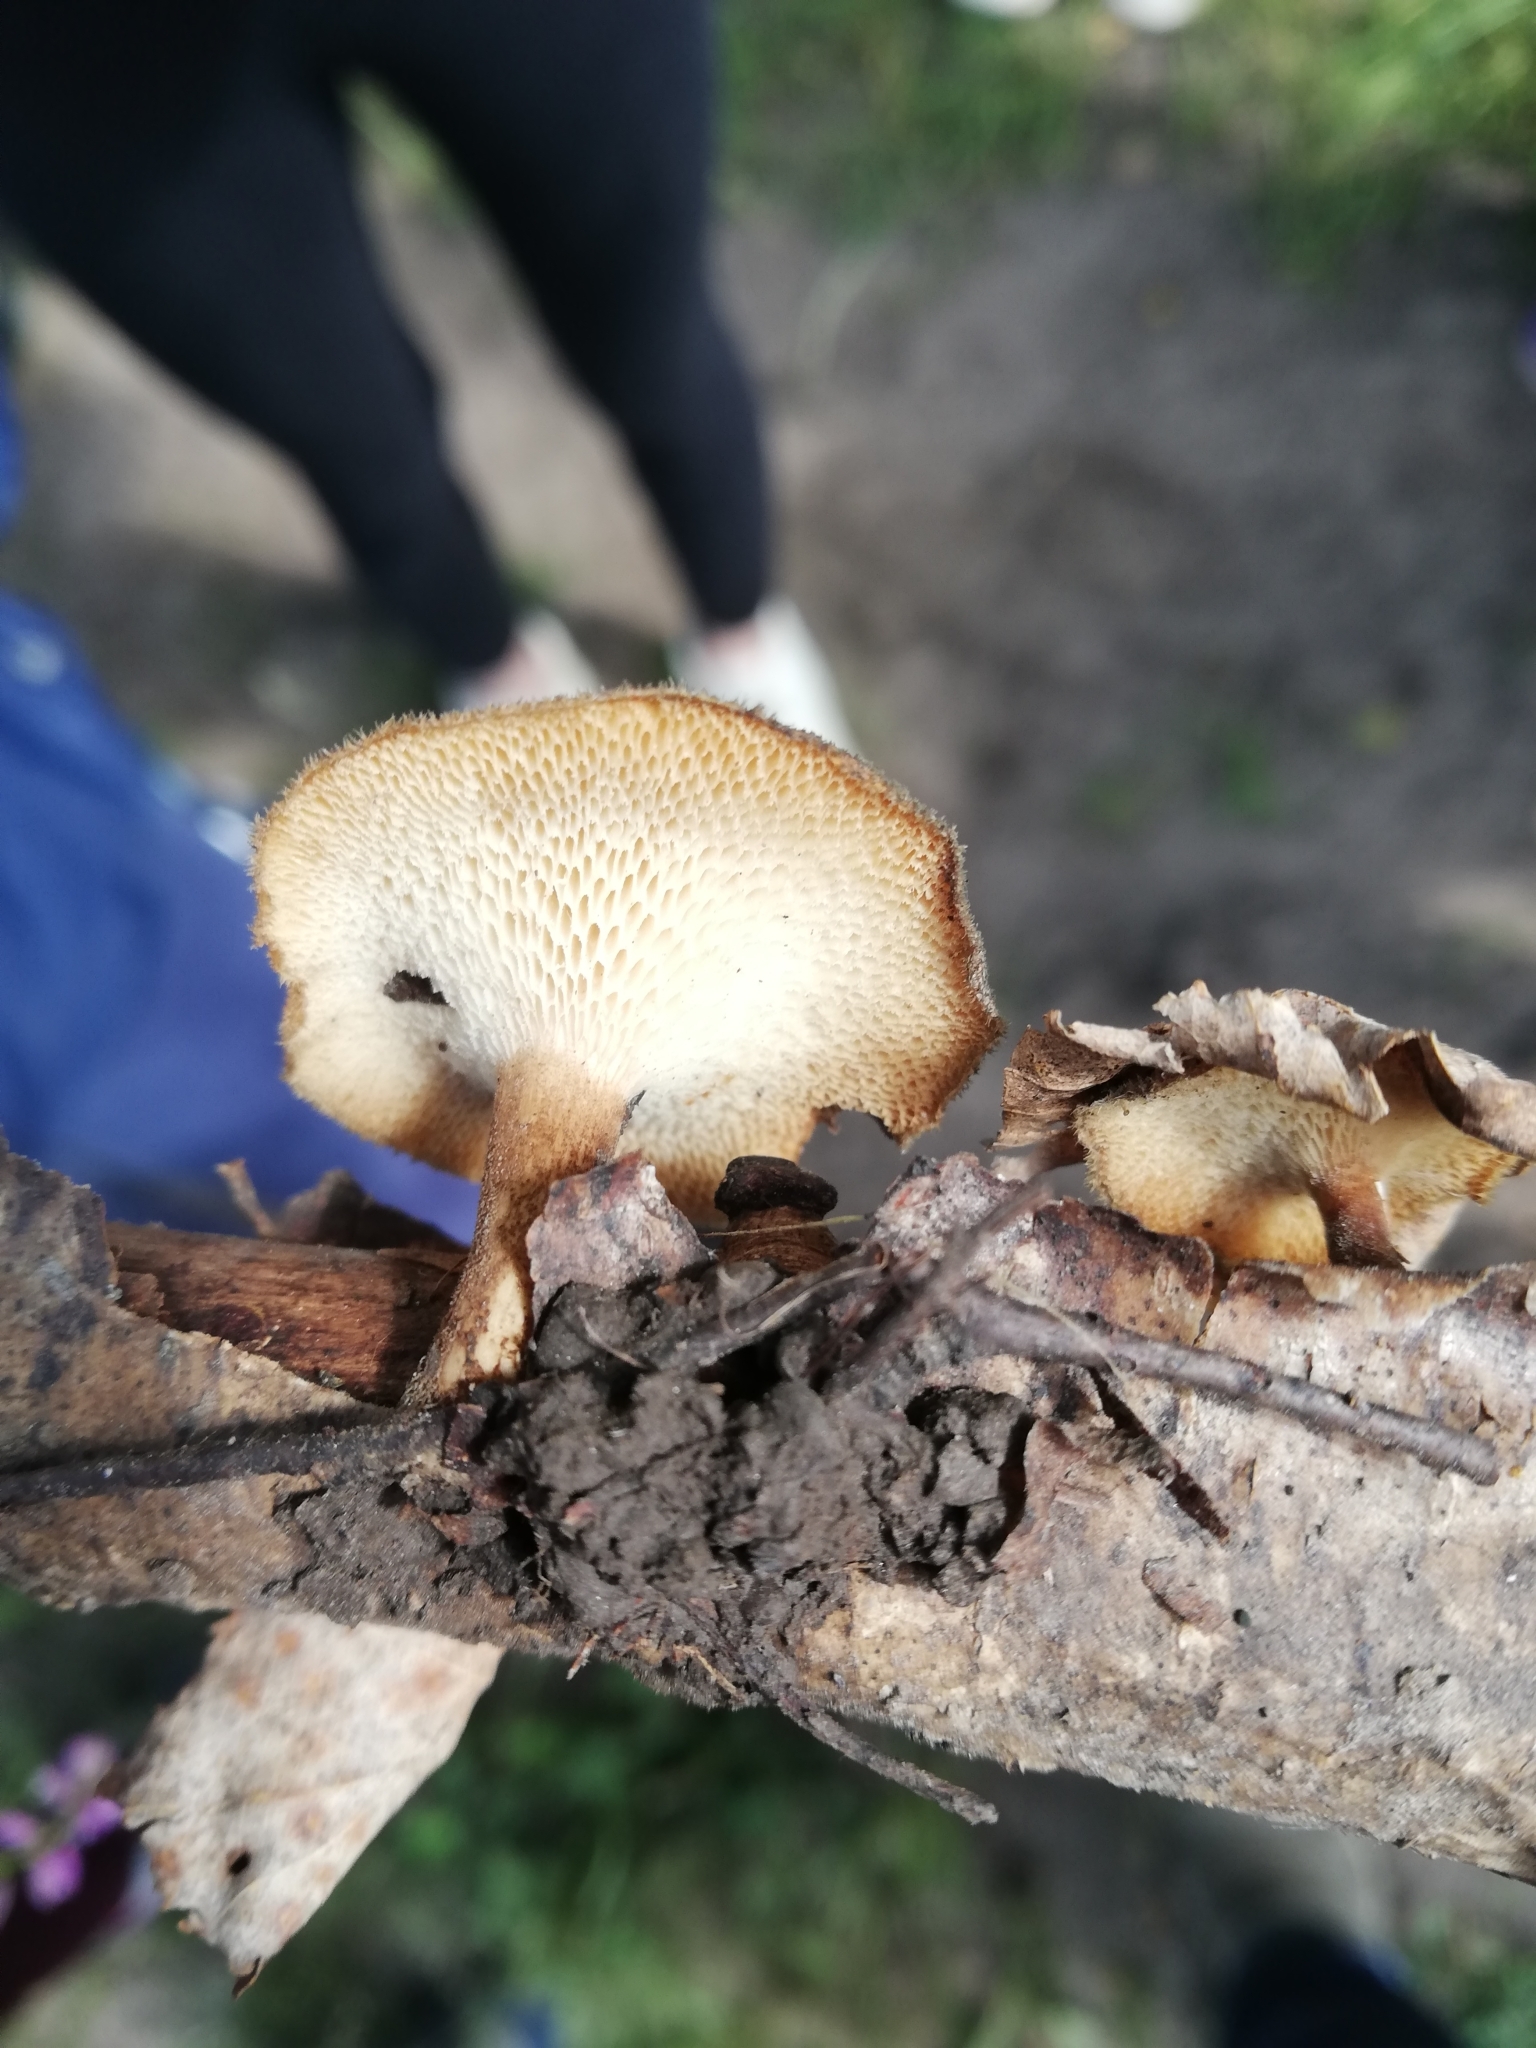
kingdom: Fungi
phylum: Basidiomycota
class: Agaricomycetes
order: Polyporales
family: Polyporaceae
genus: Lentinus
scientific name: Lentinus arcularius
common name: Spring polypore
